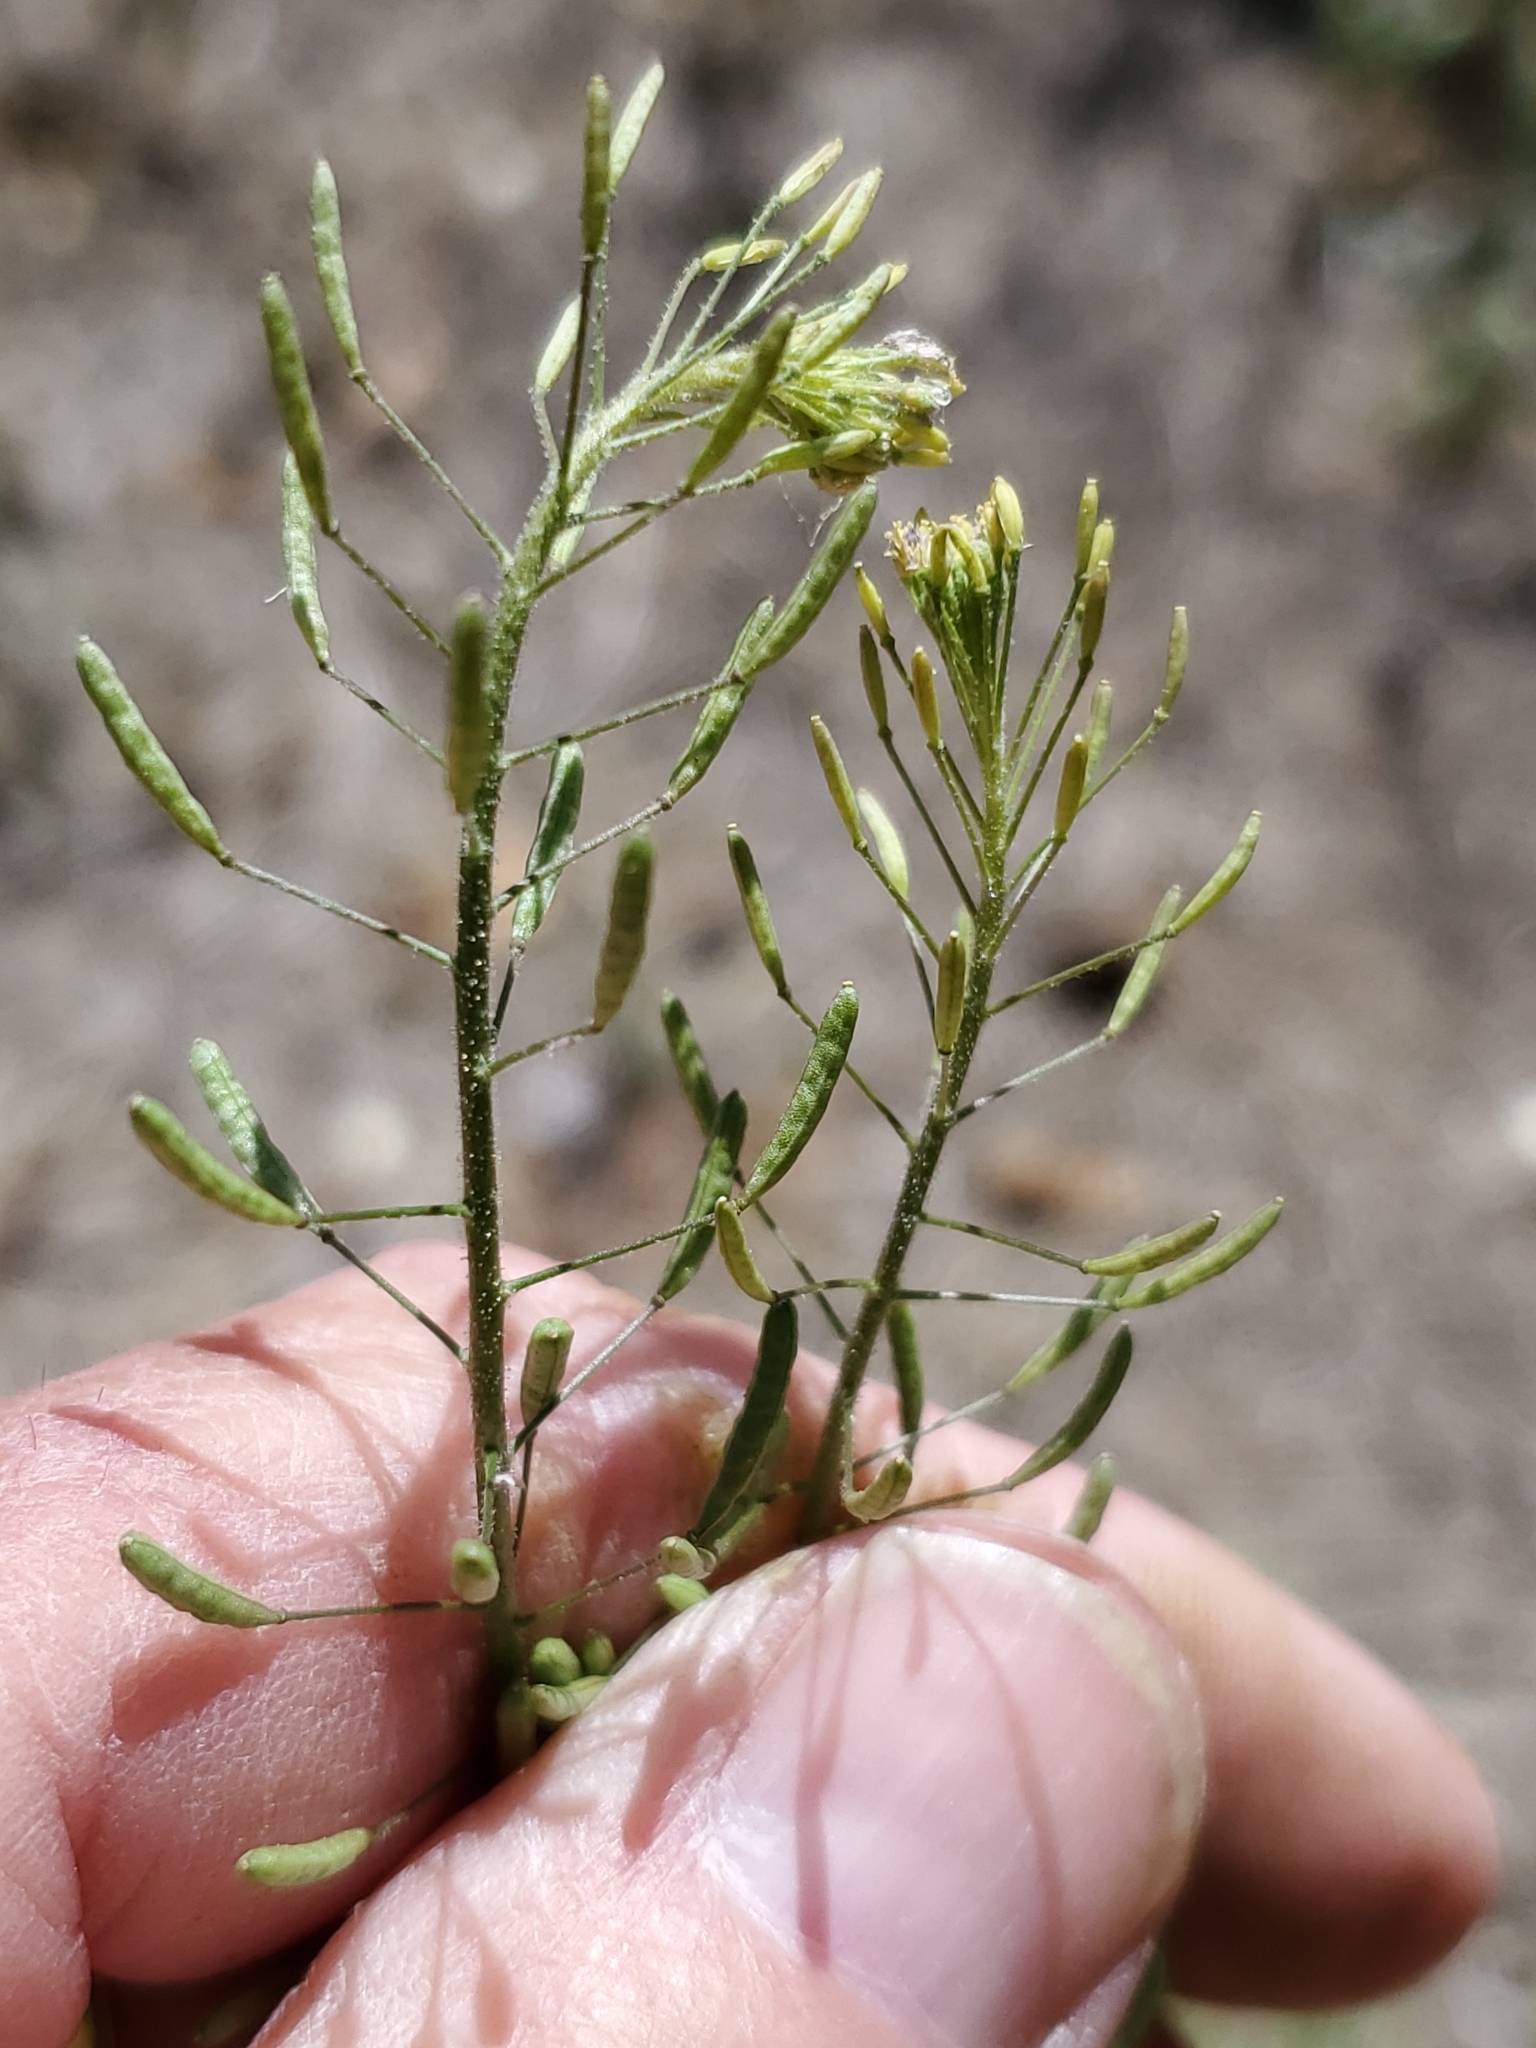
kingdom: Plantae
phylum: Tracheophyta
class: Magnoliopsida
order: Brassicales
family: Brassicaceae
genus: Descurainia
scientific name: Descurainia pinnata
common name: Western tansy mustard
